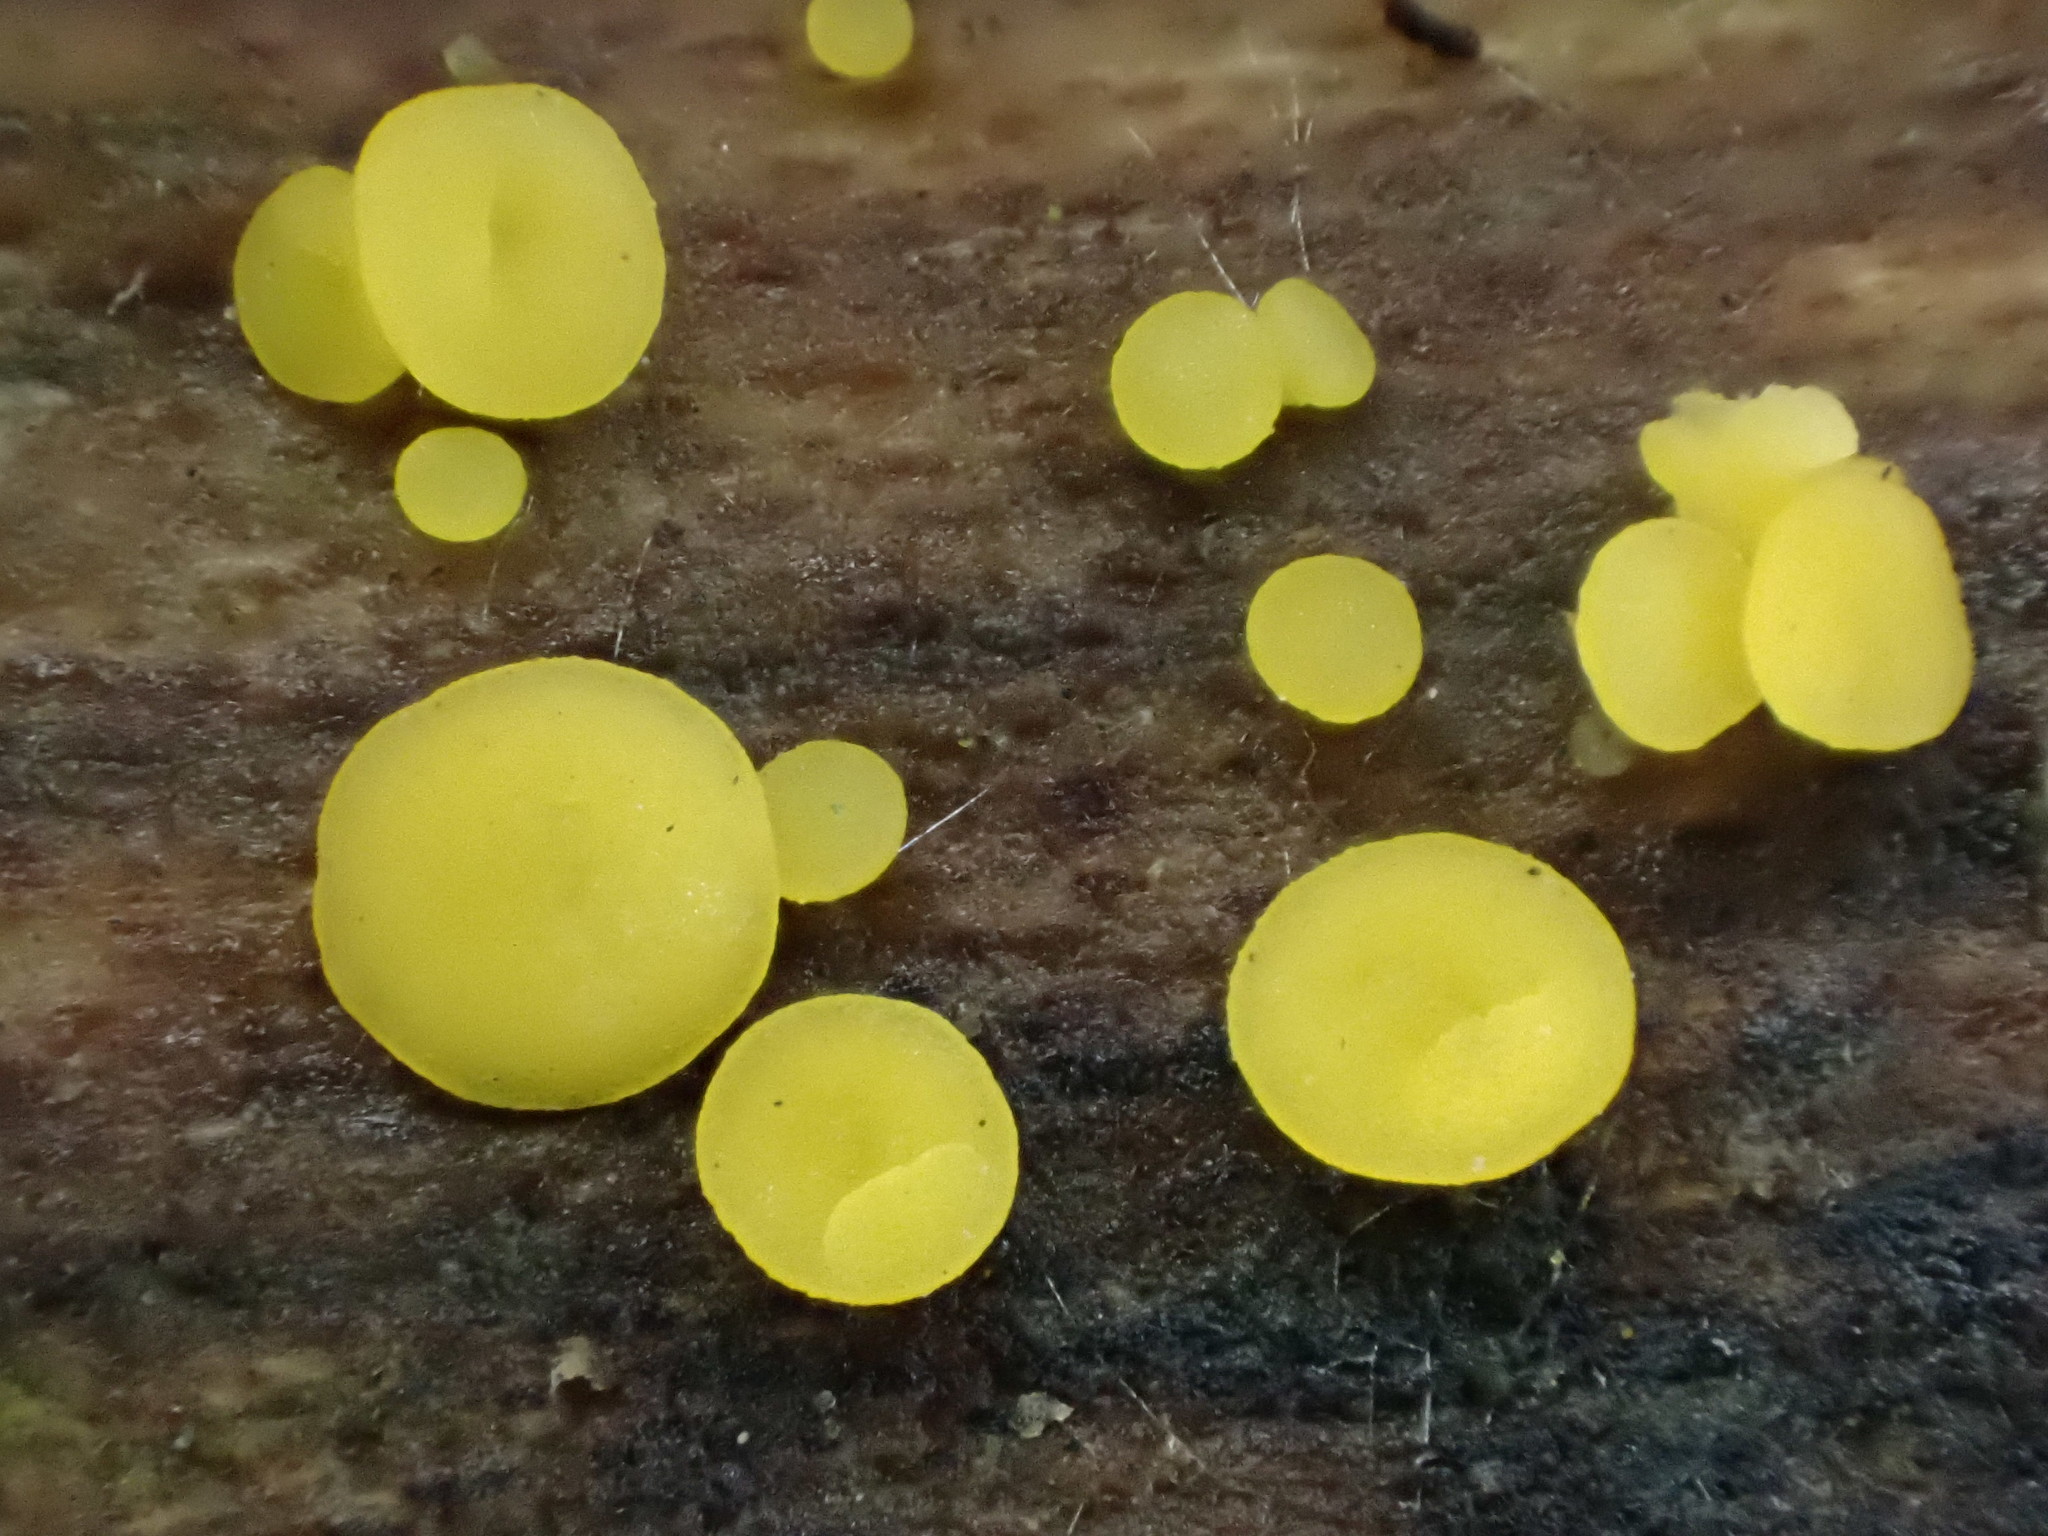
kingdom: Fungi
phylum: Ascomycota
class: Leotiomycetes
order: Helotiales
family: Pezizellaceae
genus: Calycina
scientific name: Calycina citrina
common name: Yellow fairy cups
